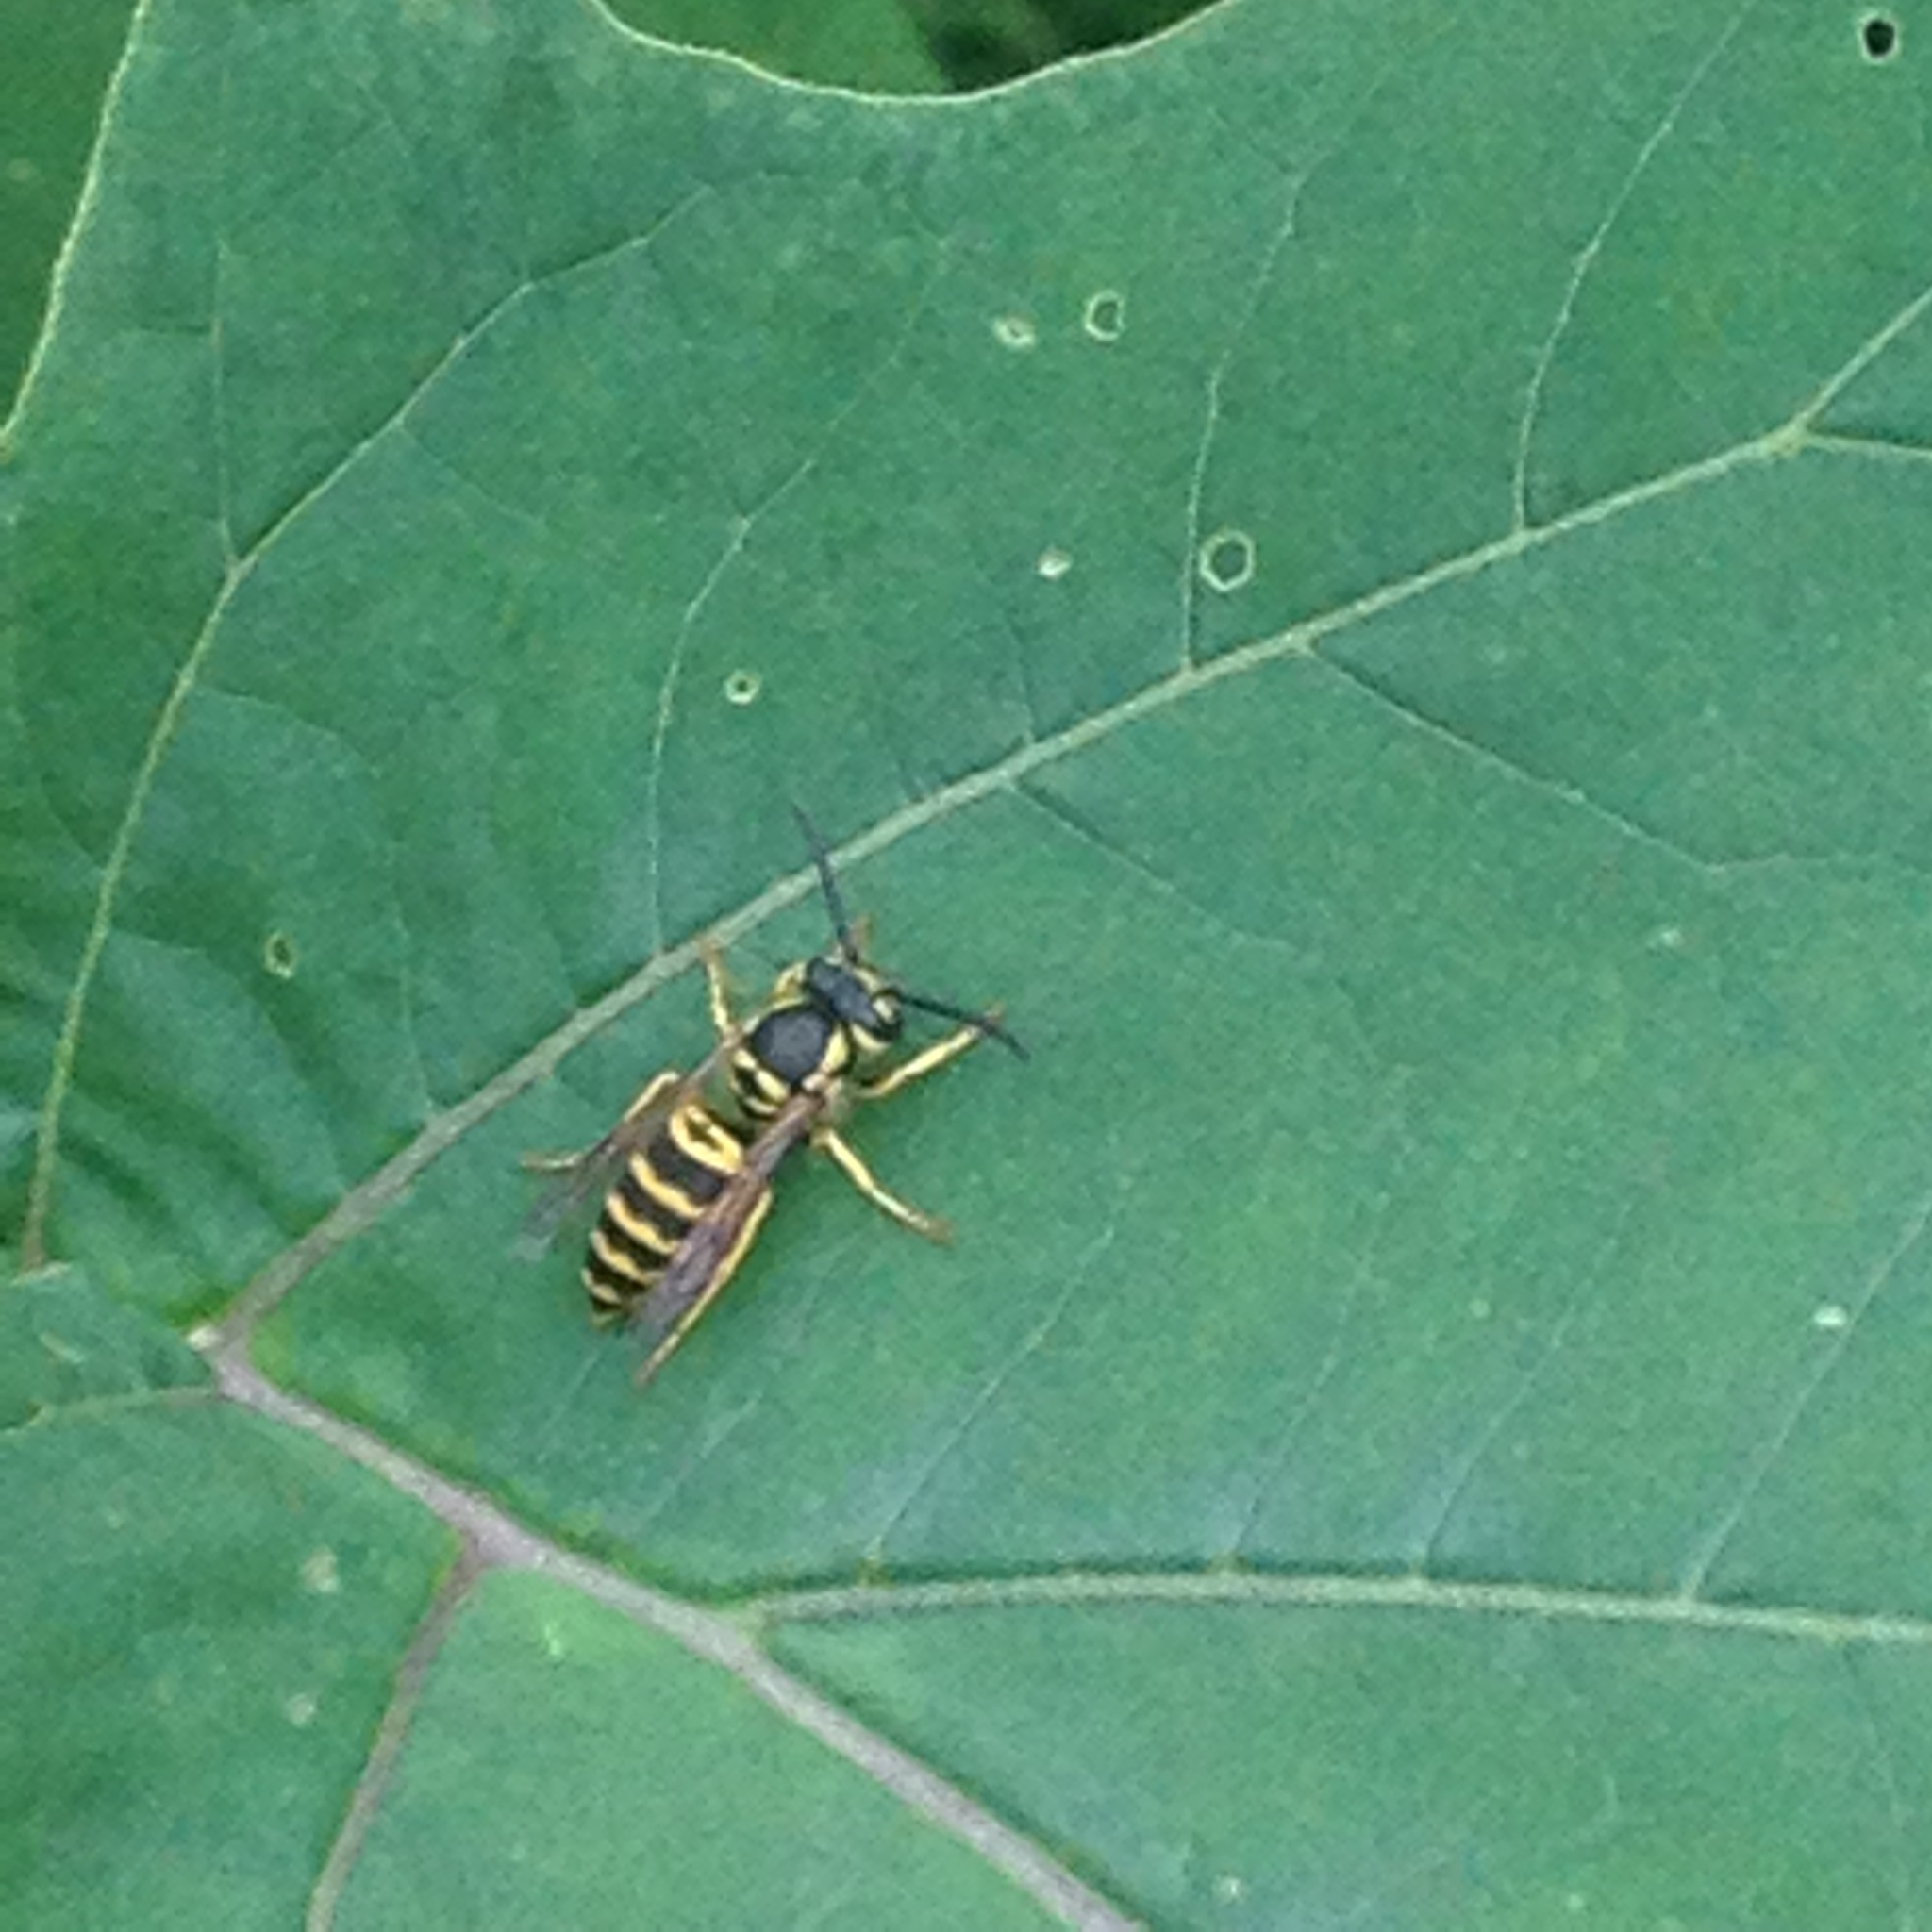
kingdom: Animalia
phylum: Arthropoda
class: Insecta
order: Hymenoptera
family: Vespidae
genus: Vespula
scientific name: Vespula maculifrons
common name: Eastern yellowjacket
